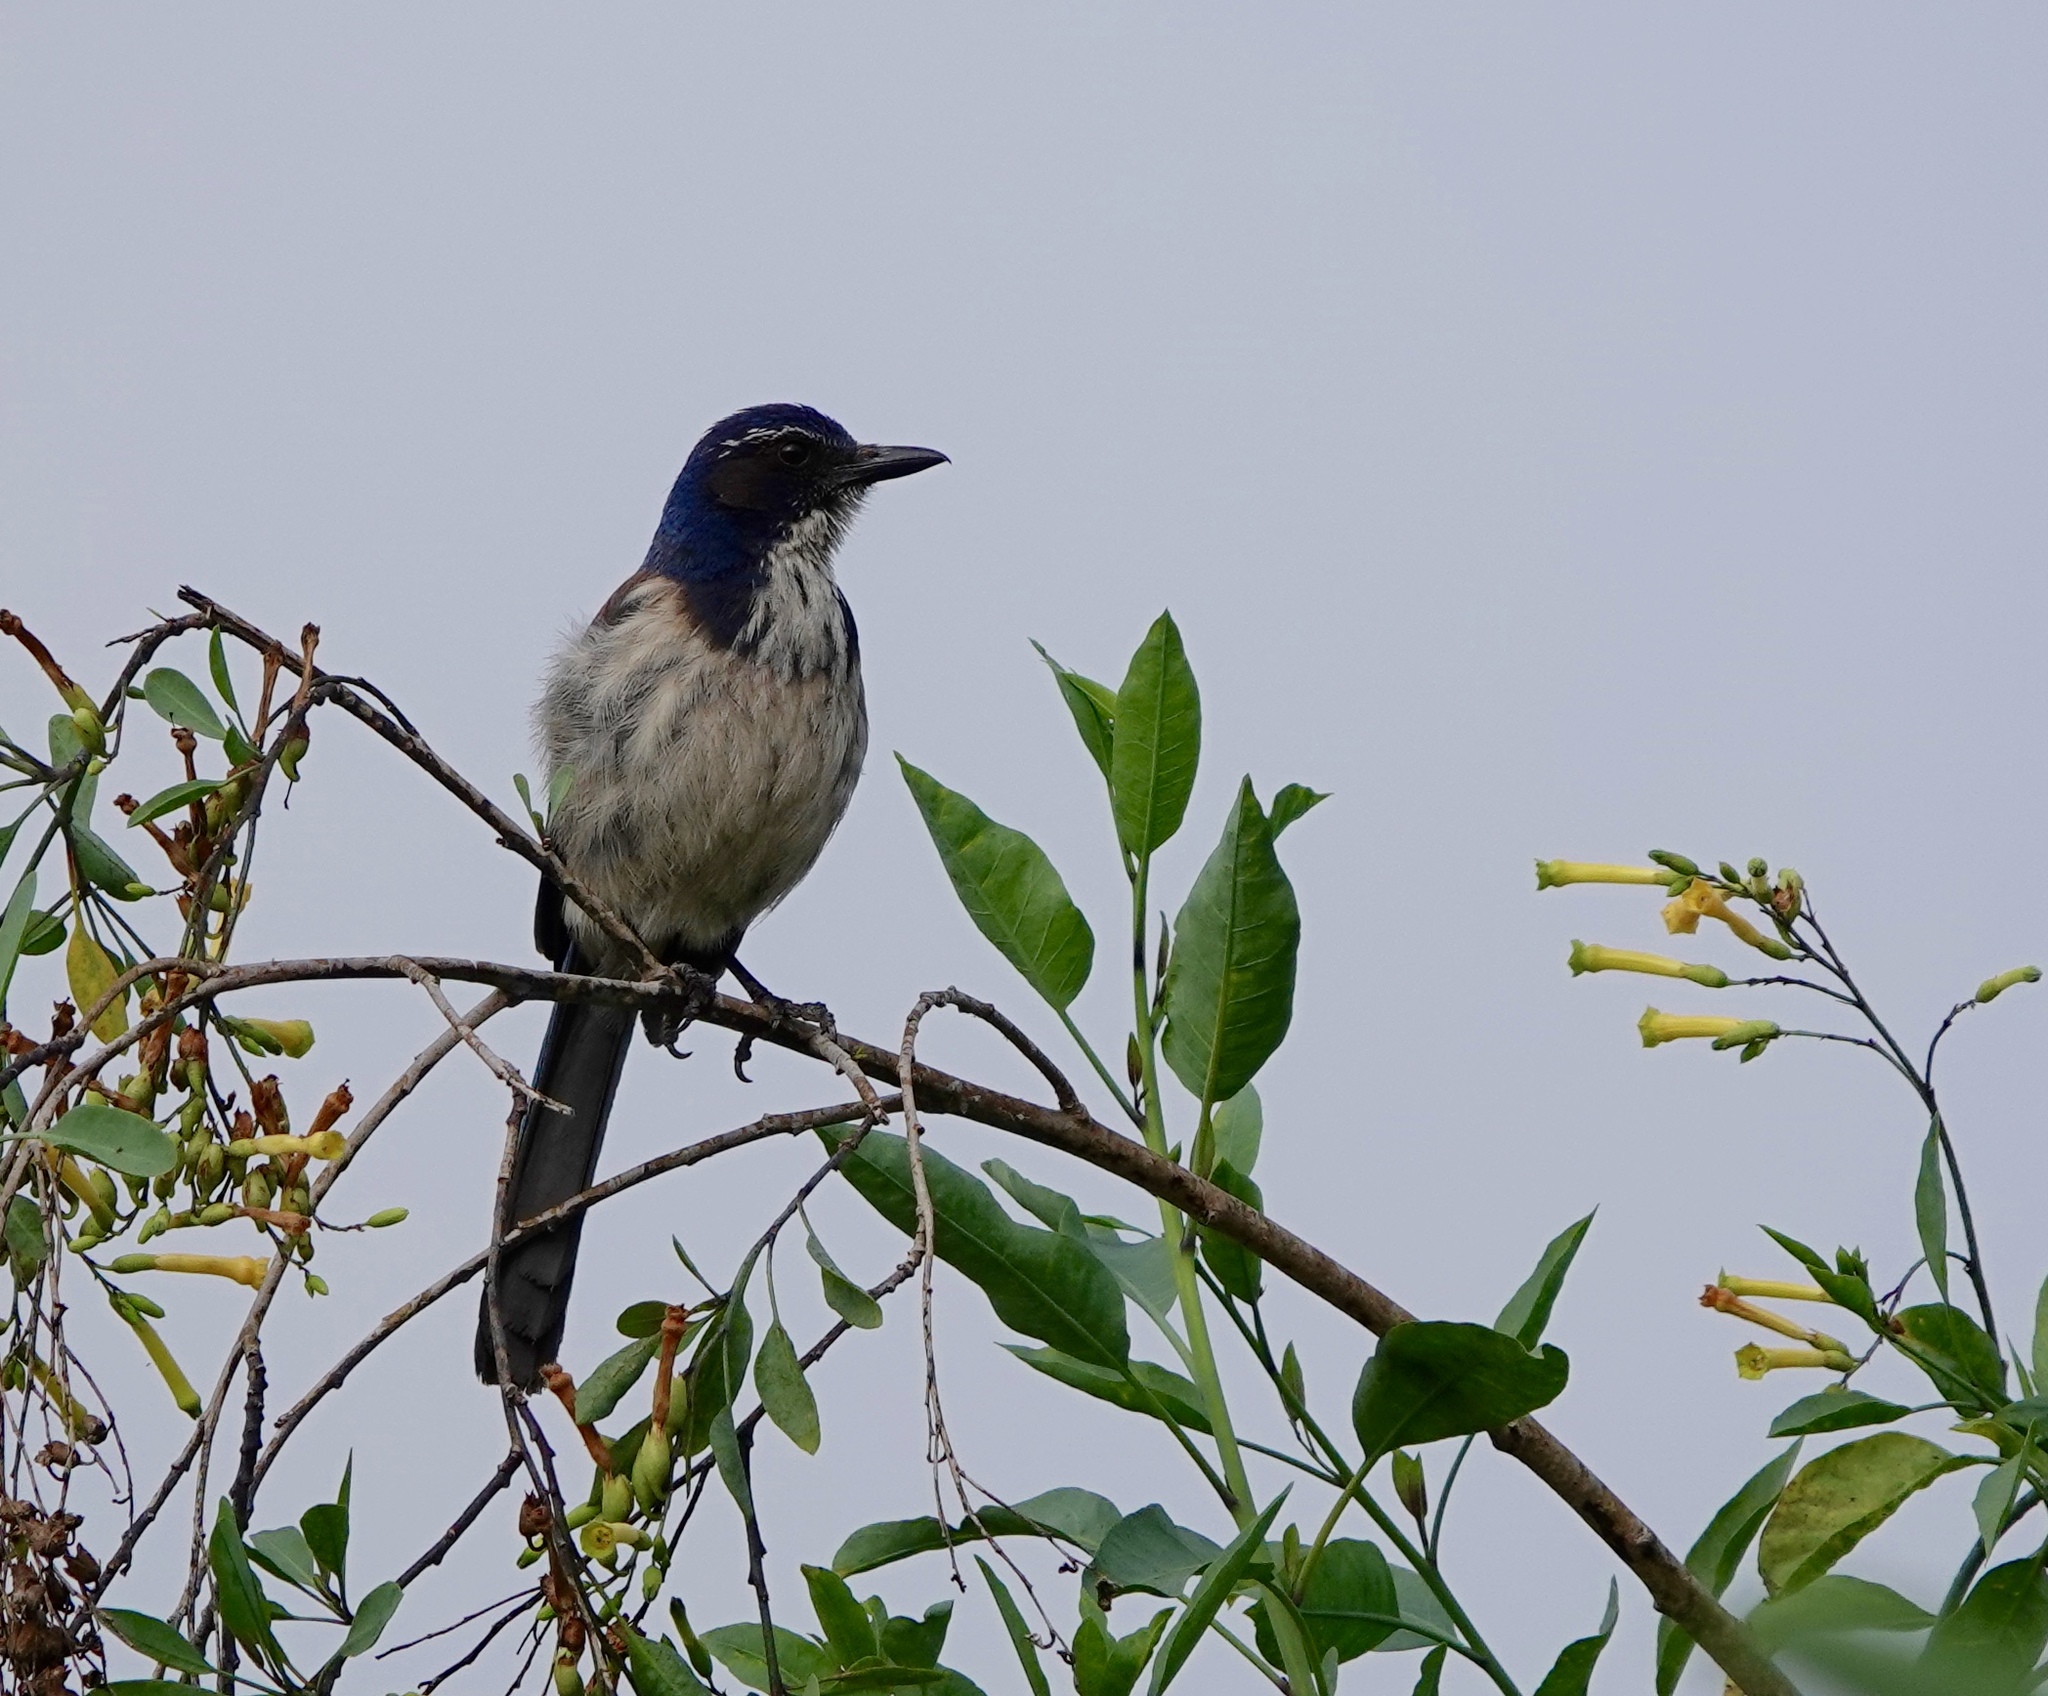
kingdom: Animalia
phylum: Chordata
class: Aves
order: Passeriformes
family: Corvidae
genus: Aphelocoma
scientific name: Aphelocoma californica
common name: California scrub-jay
